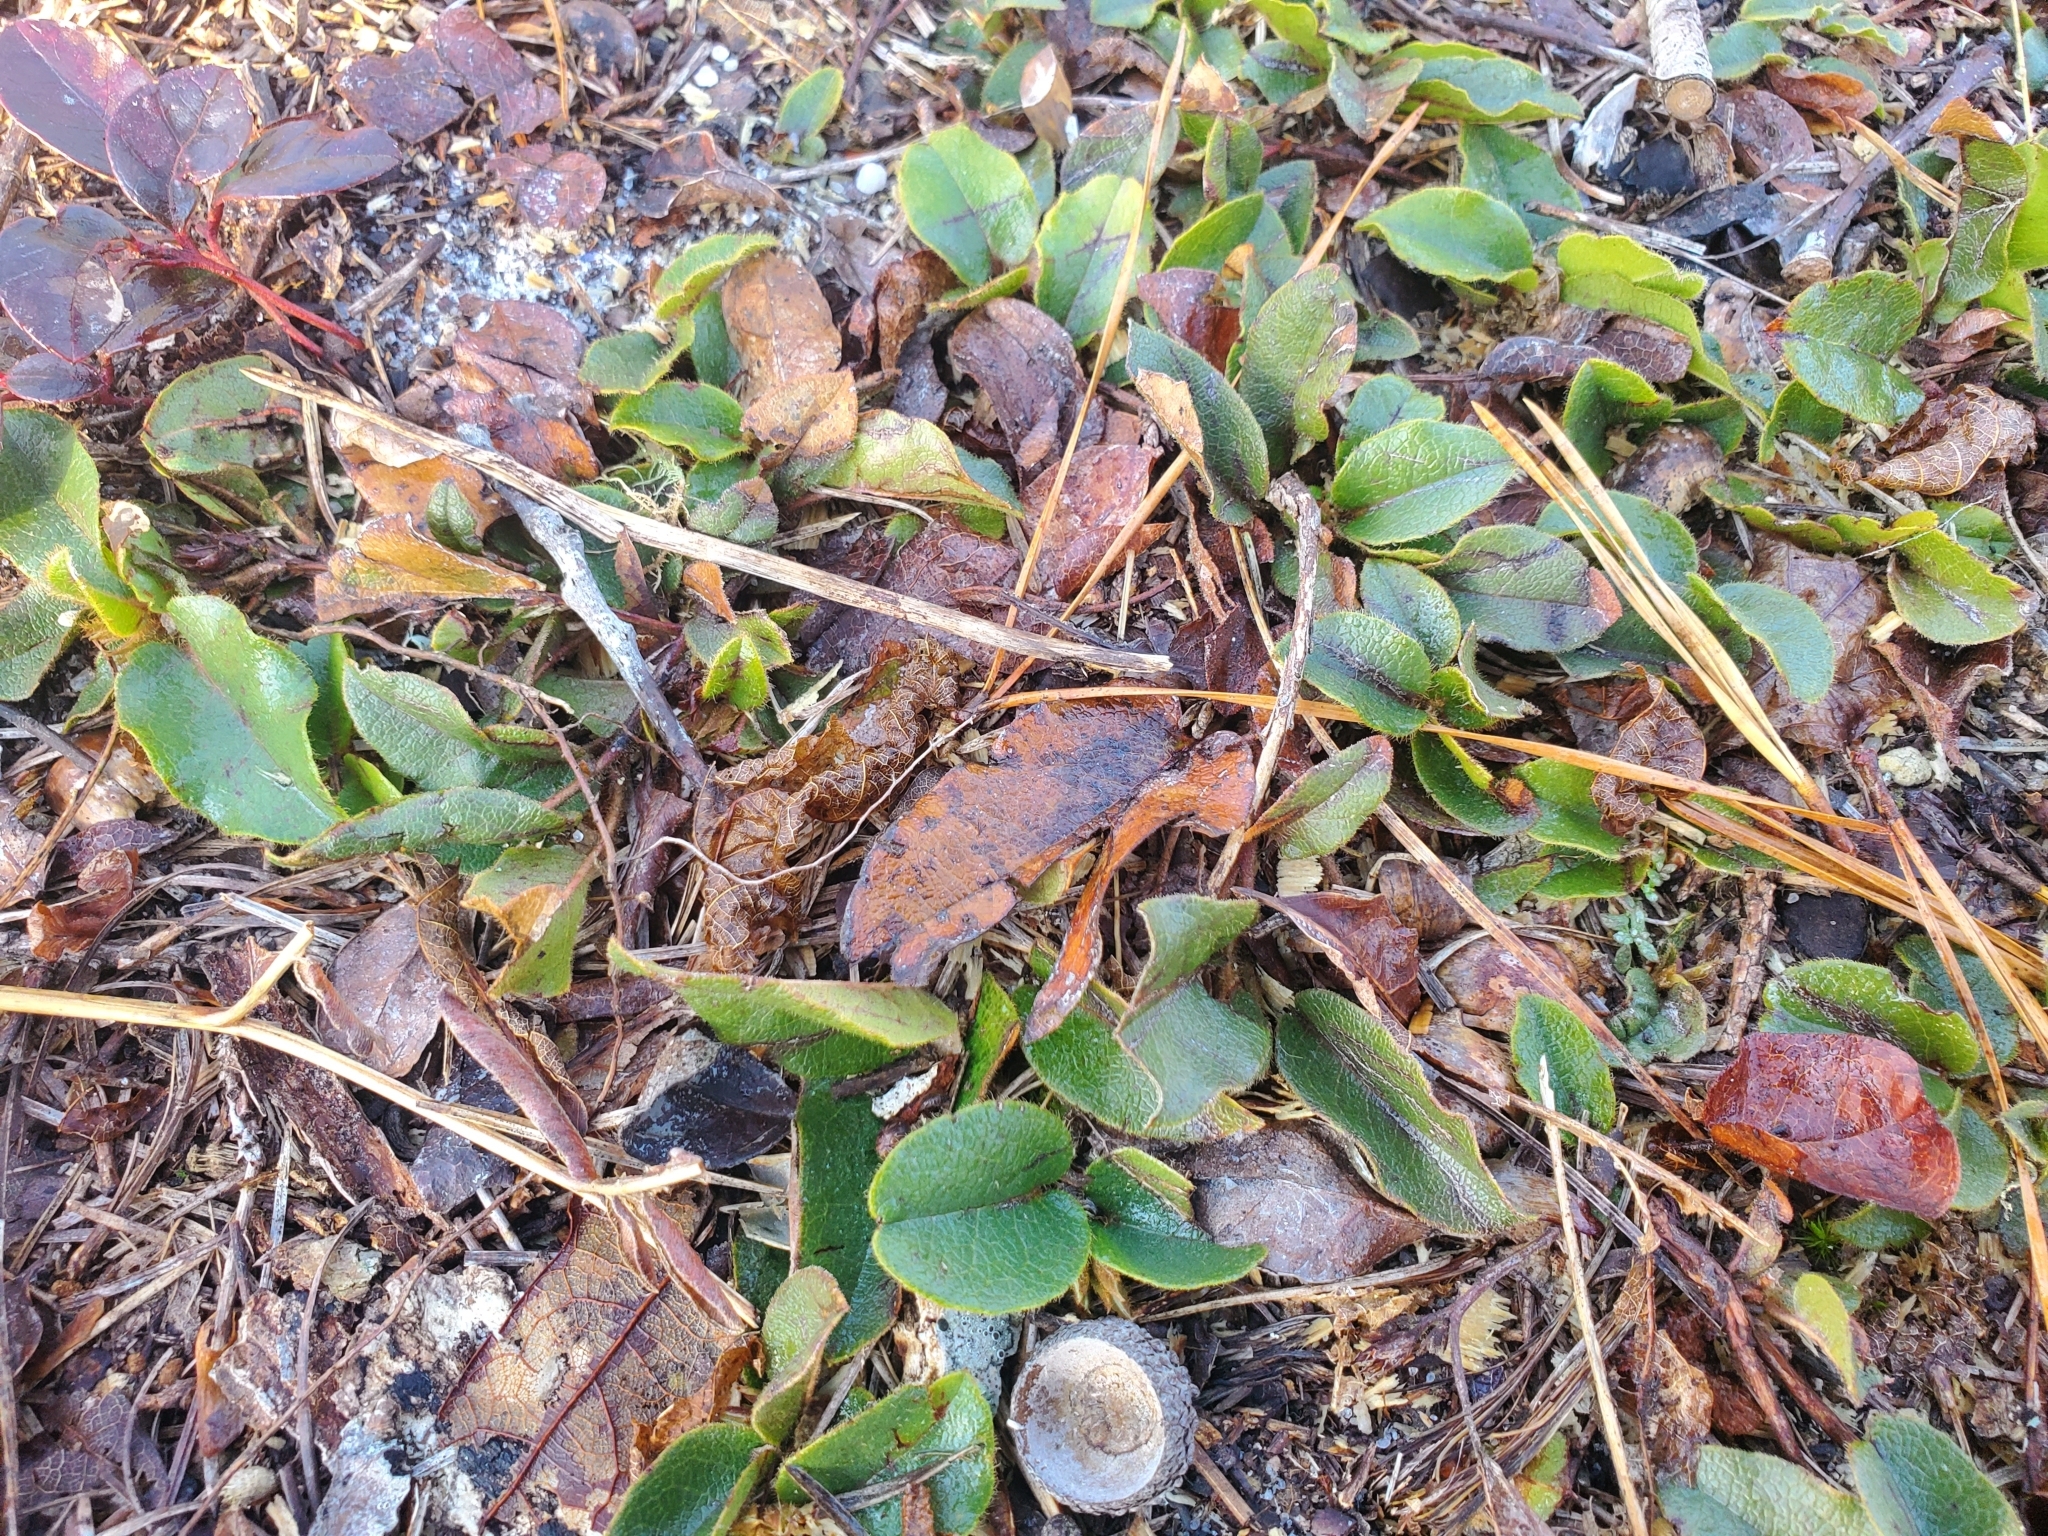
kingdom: Plantae
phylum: Tracheophyta
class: Magnoliopsida
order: Ericales
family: Ericaceae
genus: Epigaea
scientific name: Epigaea repens
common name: Gravelroot
